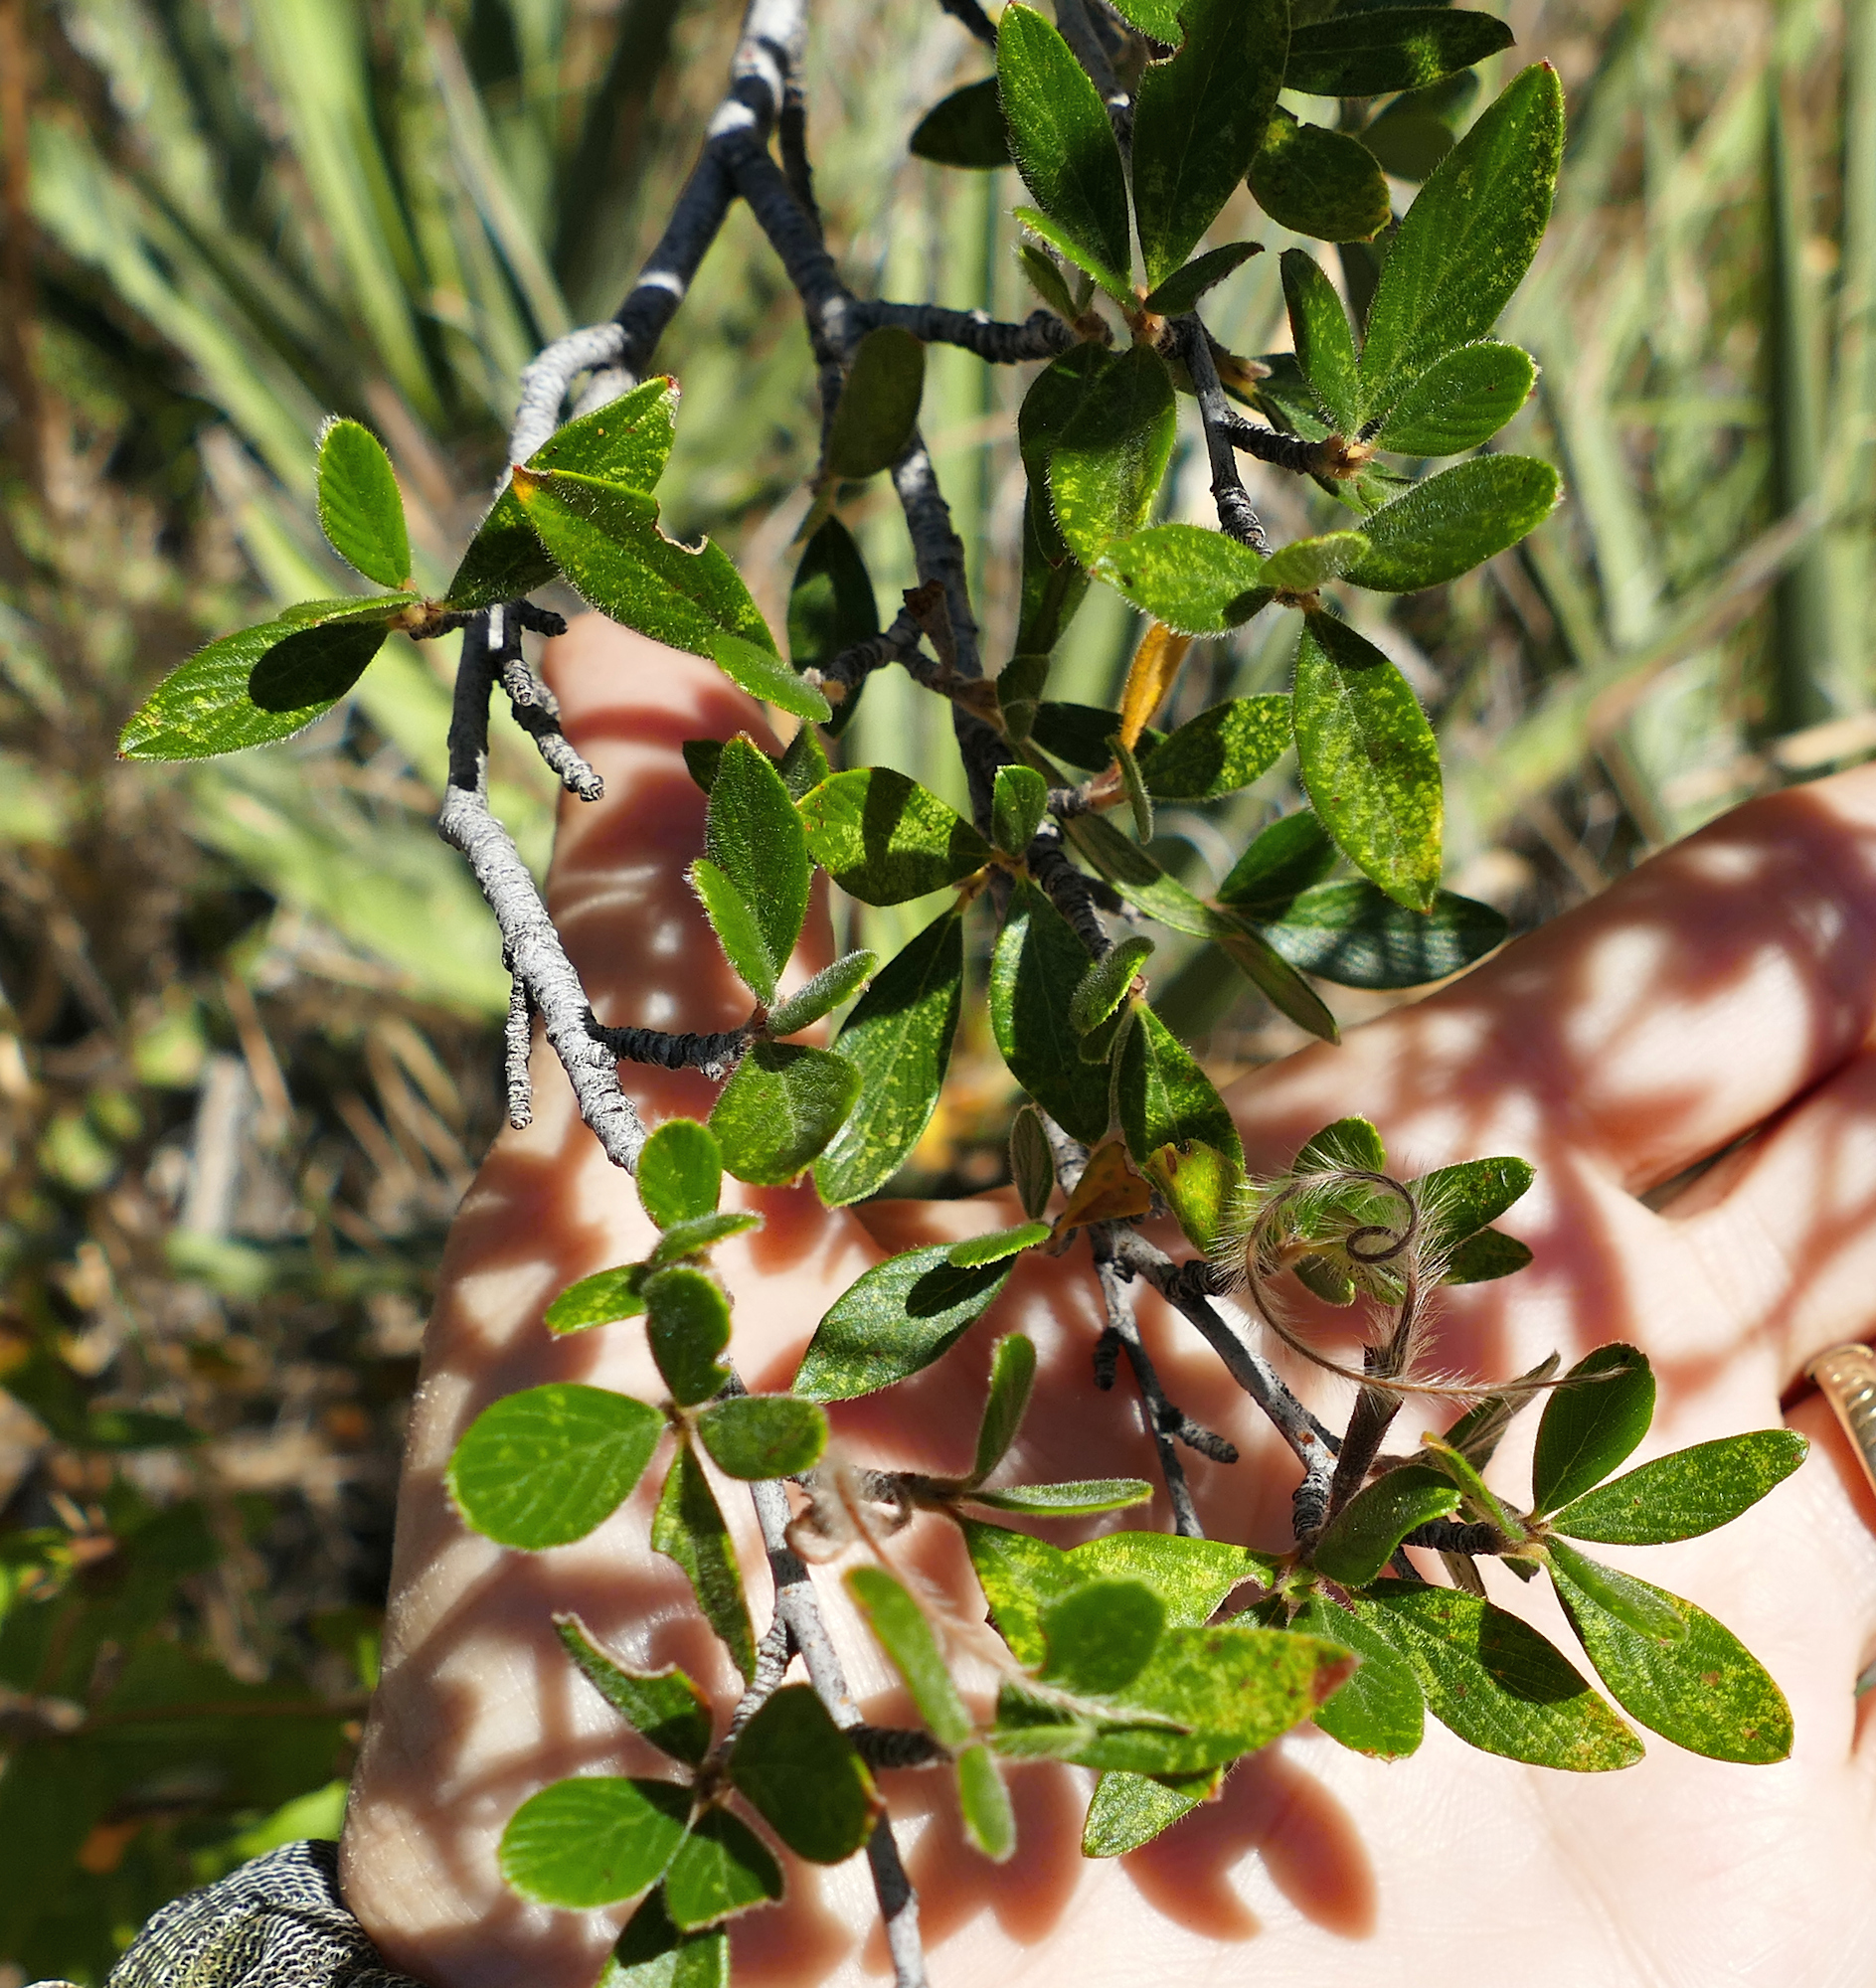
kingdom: Plantae
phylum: Tracheophyta
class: Magnoliopsida
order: Rosales
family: Rosaceae
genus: Cercocarpus
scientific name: Cercocarpus breviflorus
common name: Wright's mountain-mahogany
